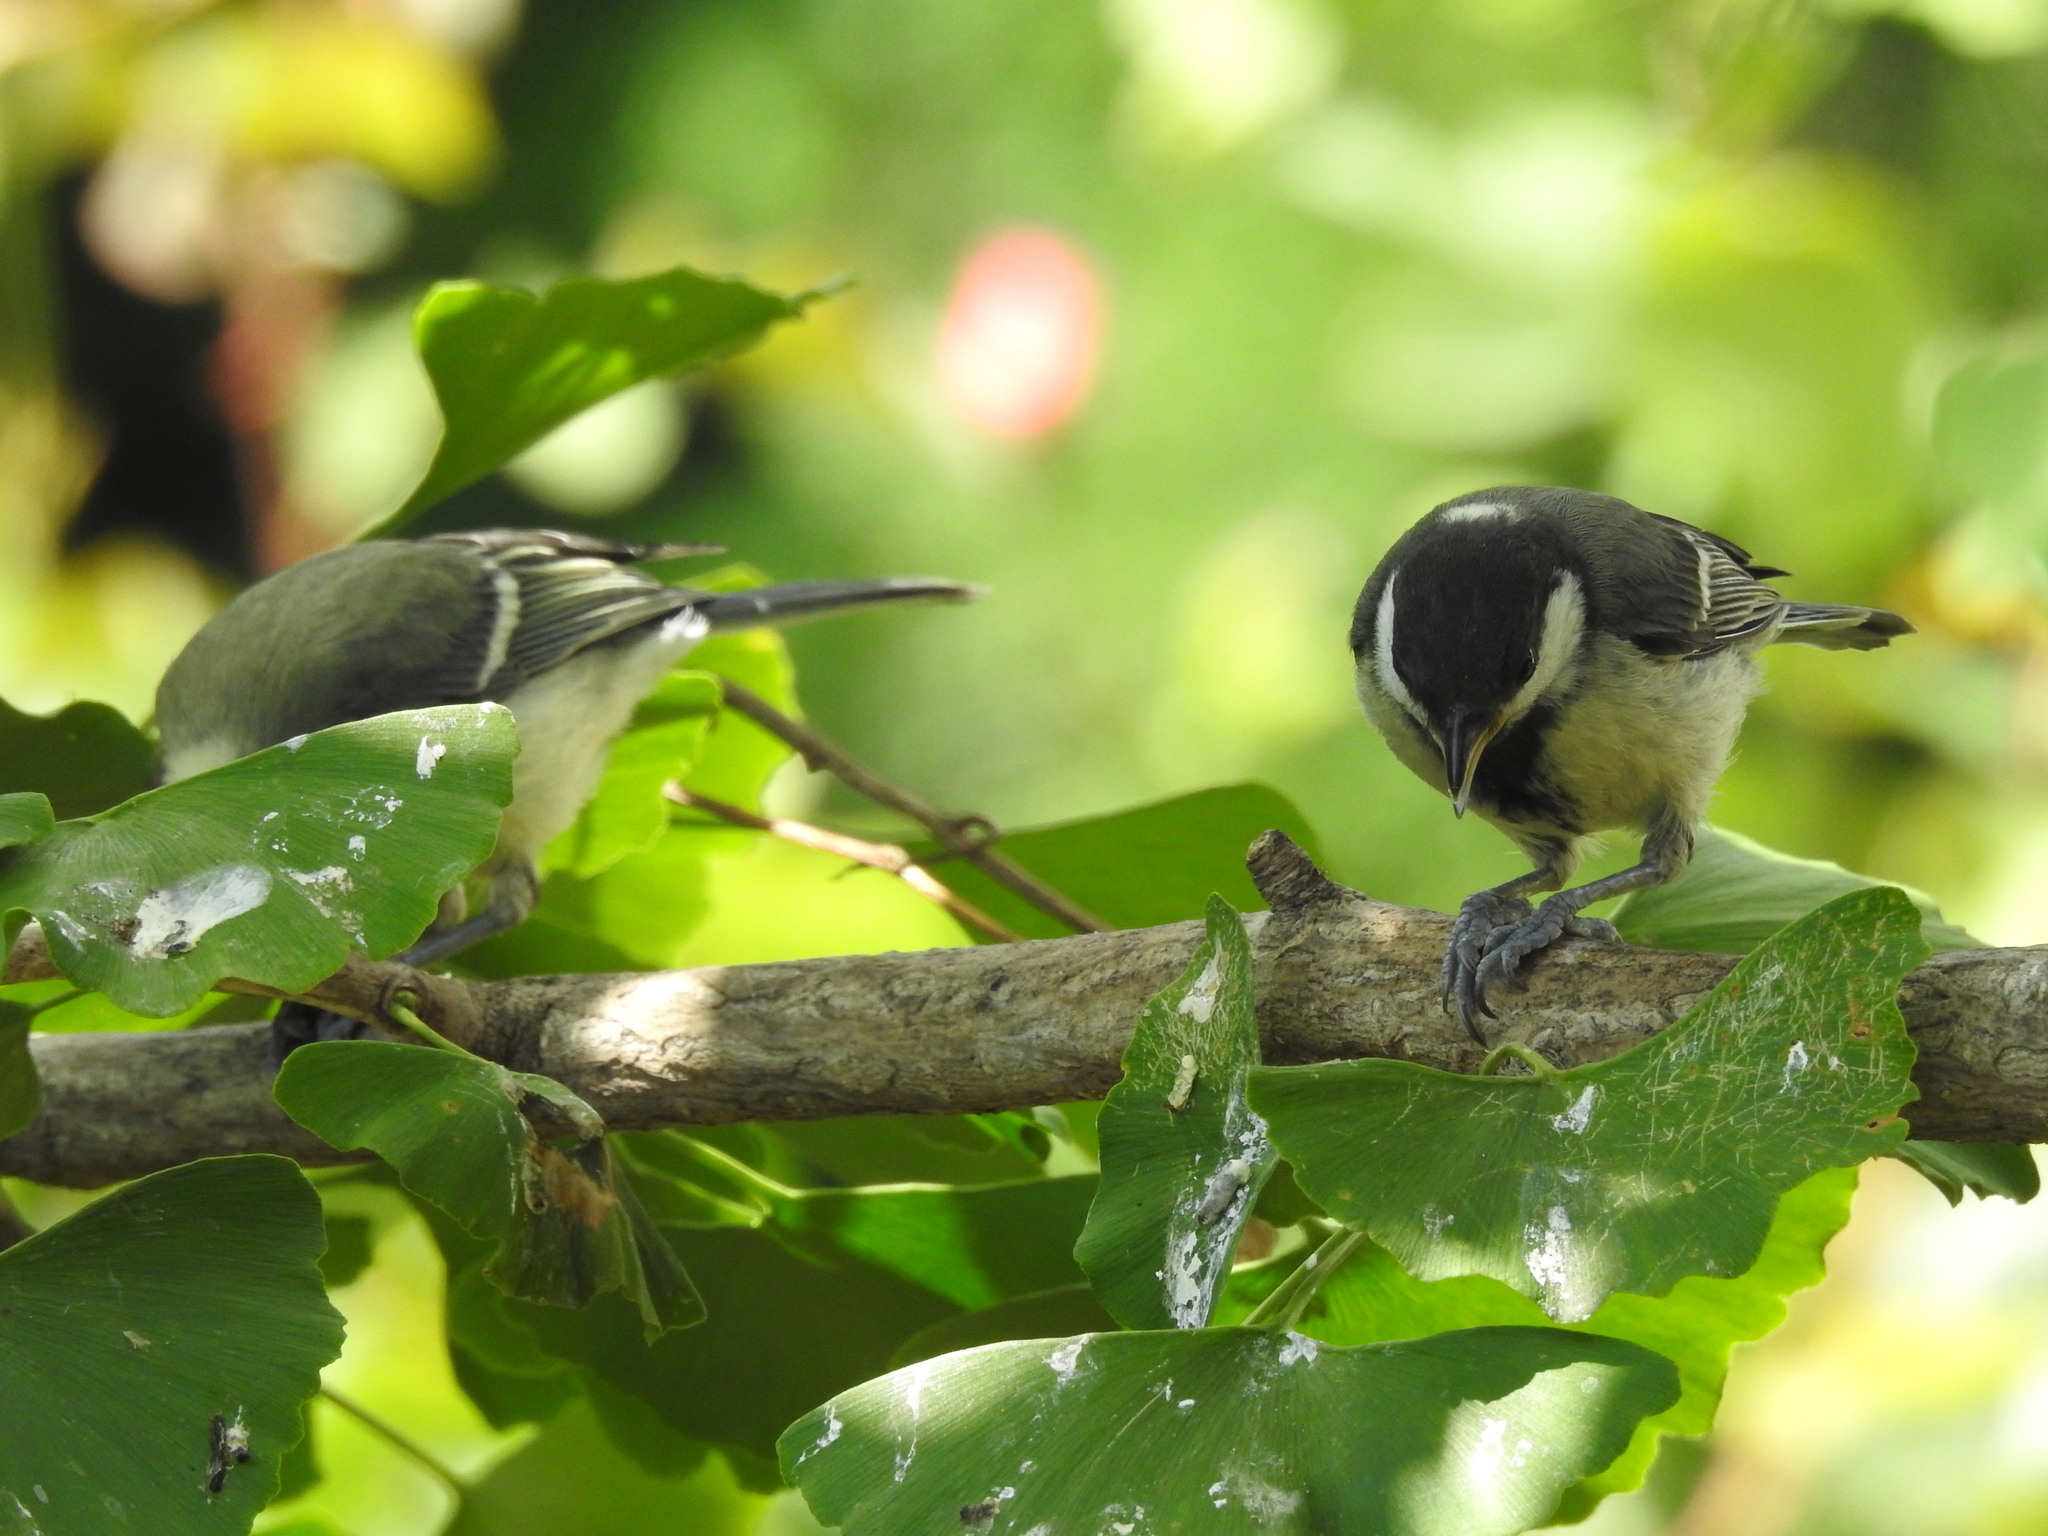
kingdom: Animalia
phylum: Chordata
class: Aves
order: Passeriformes
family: Paridae
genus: Parus
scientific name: Parus major
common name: Great tit
